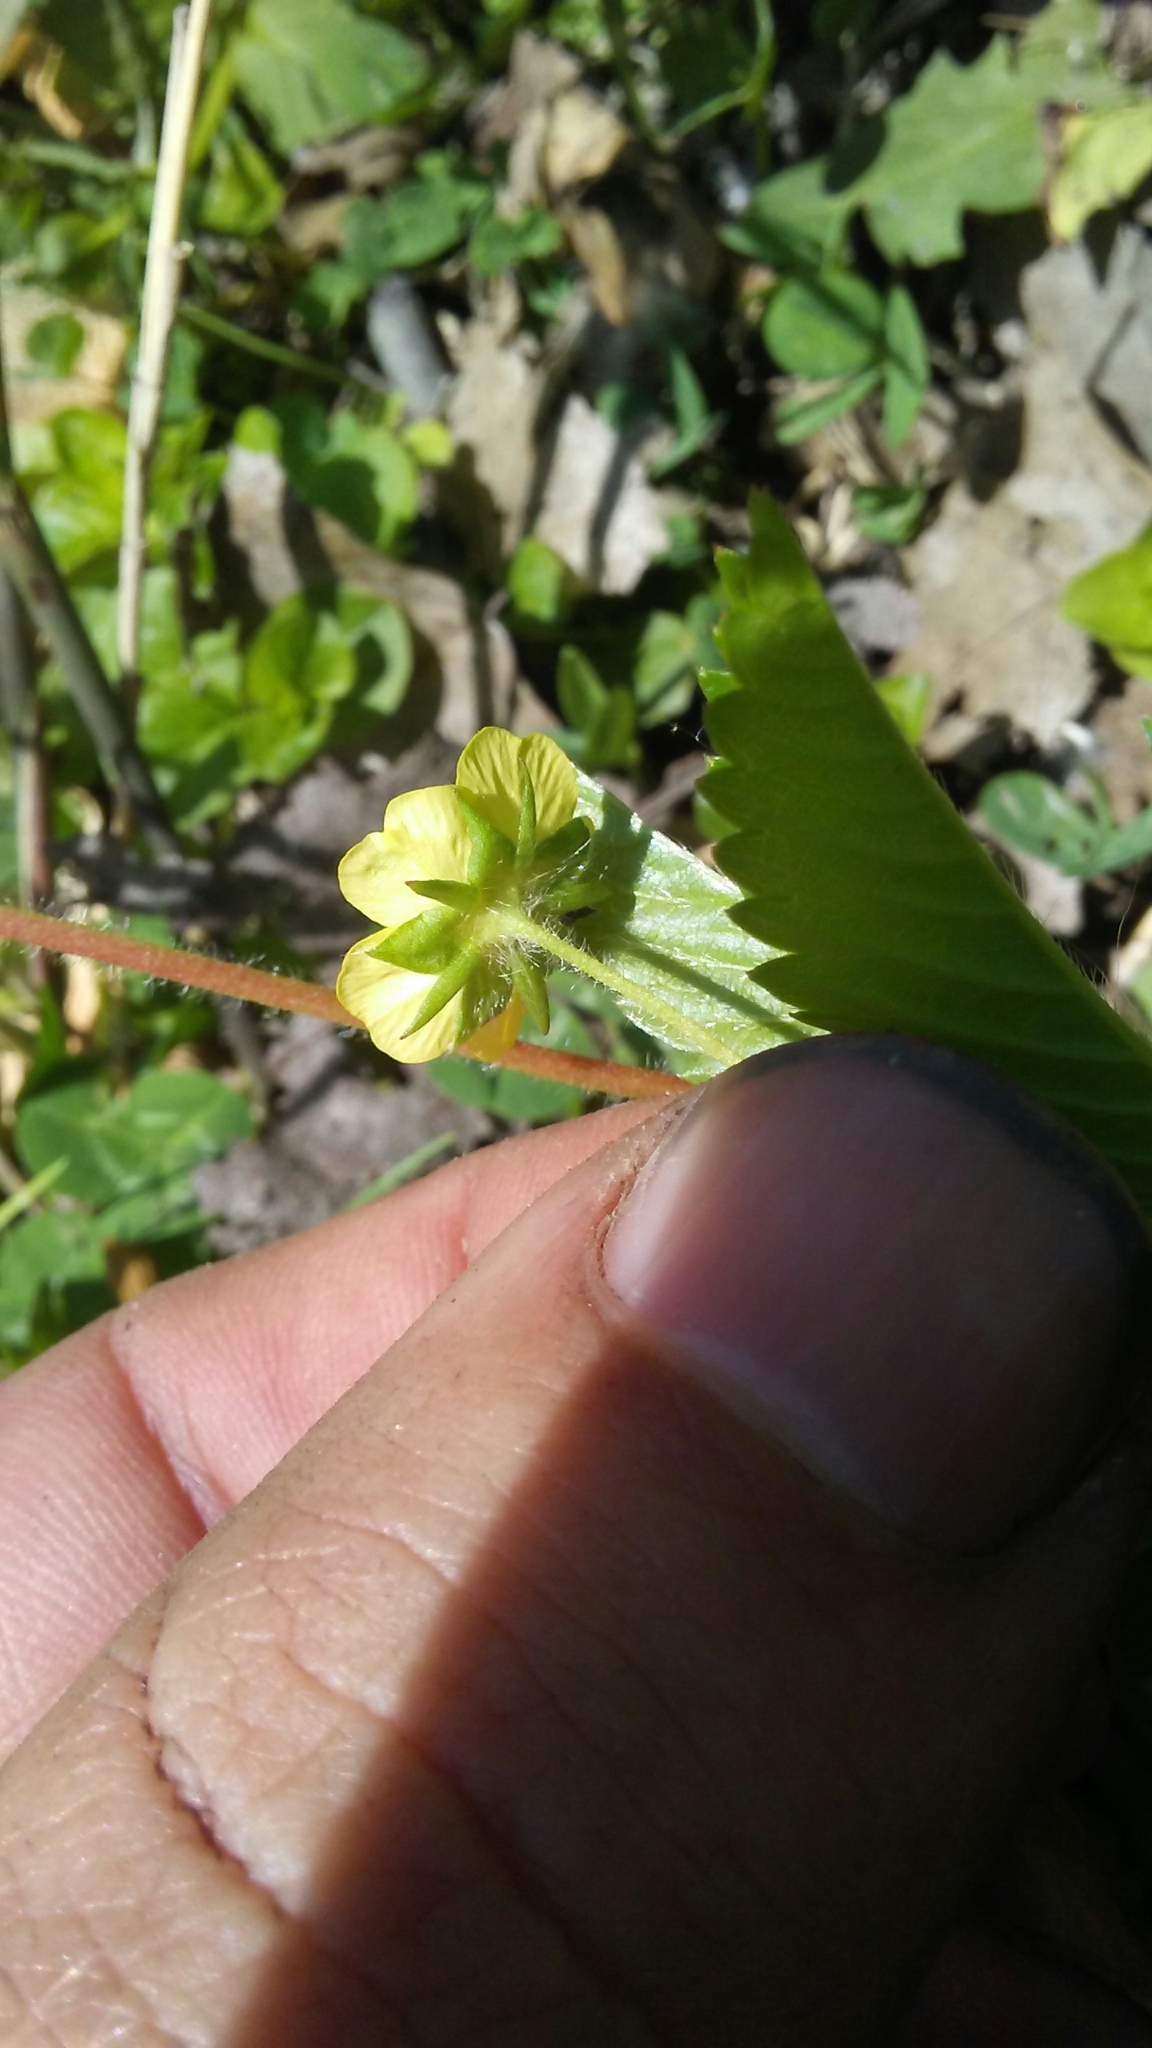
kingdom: Plantae
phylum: Tracheophyta
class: Magnoliopsida
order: Rosales
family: Rosaceae
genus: Potentilla
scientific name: Potentilla simplex
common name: Old field cinquefoil
